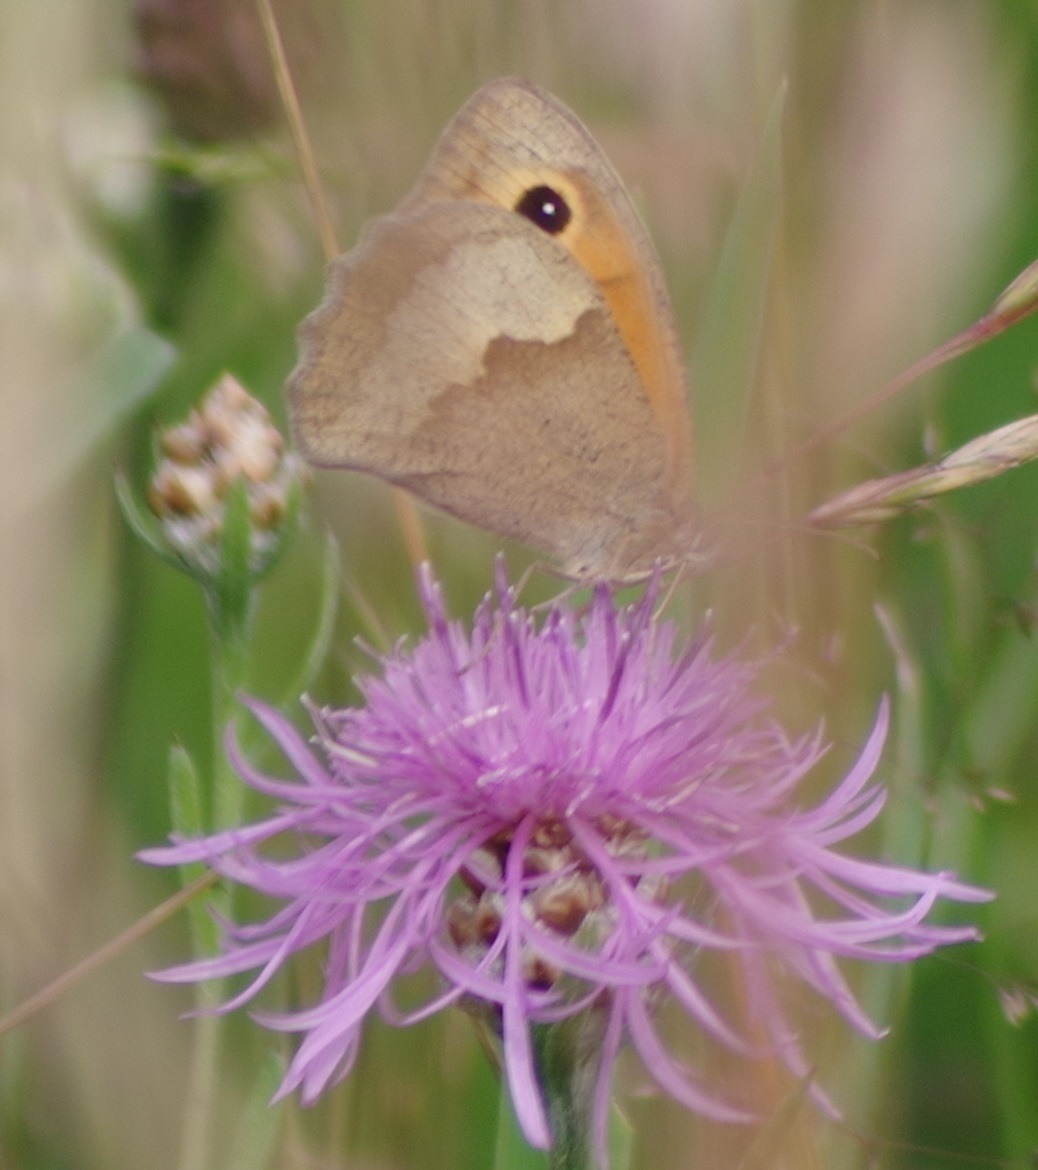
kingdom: Animalia
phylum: Arthropoda
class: Insecta
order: Lepidoptera
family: Nymphalidae
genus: Maniola
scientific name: Maniola jurtina
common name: Meadow brown
